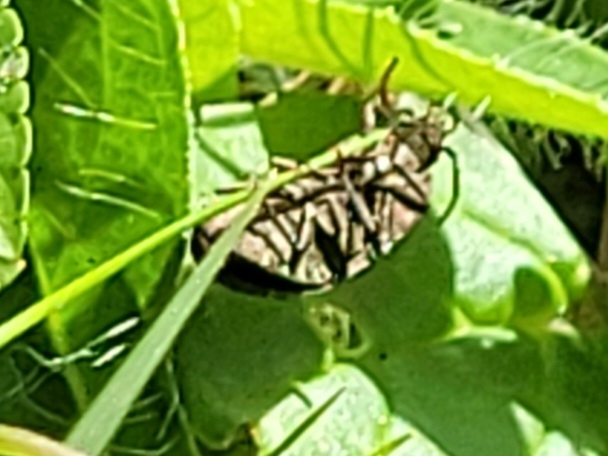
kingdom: Animalia
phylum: Arthropoda
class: Insecta
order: Coleoptera
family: Elateridae
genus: Agrypnus
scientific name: Agrypnus murinus
